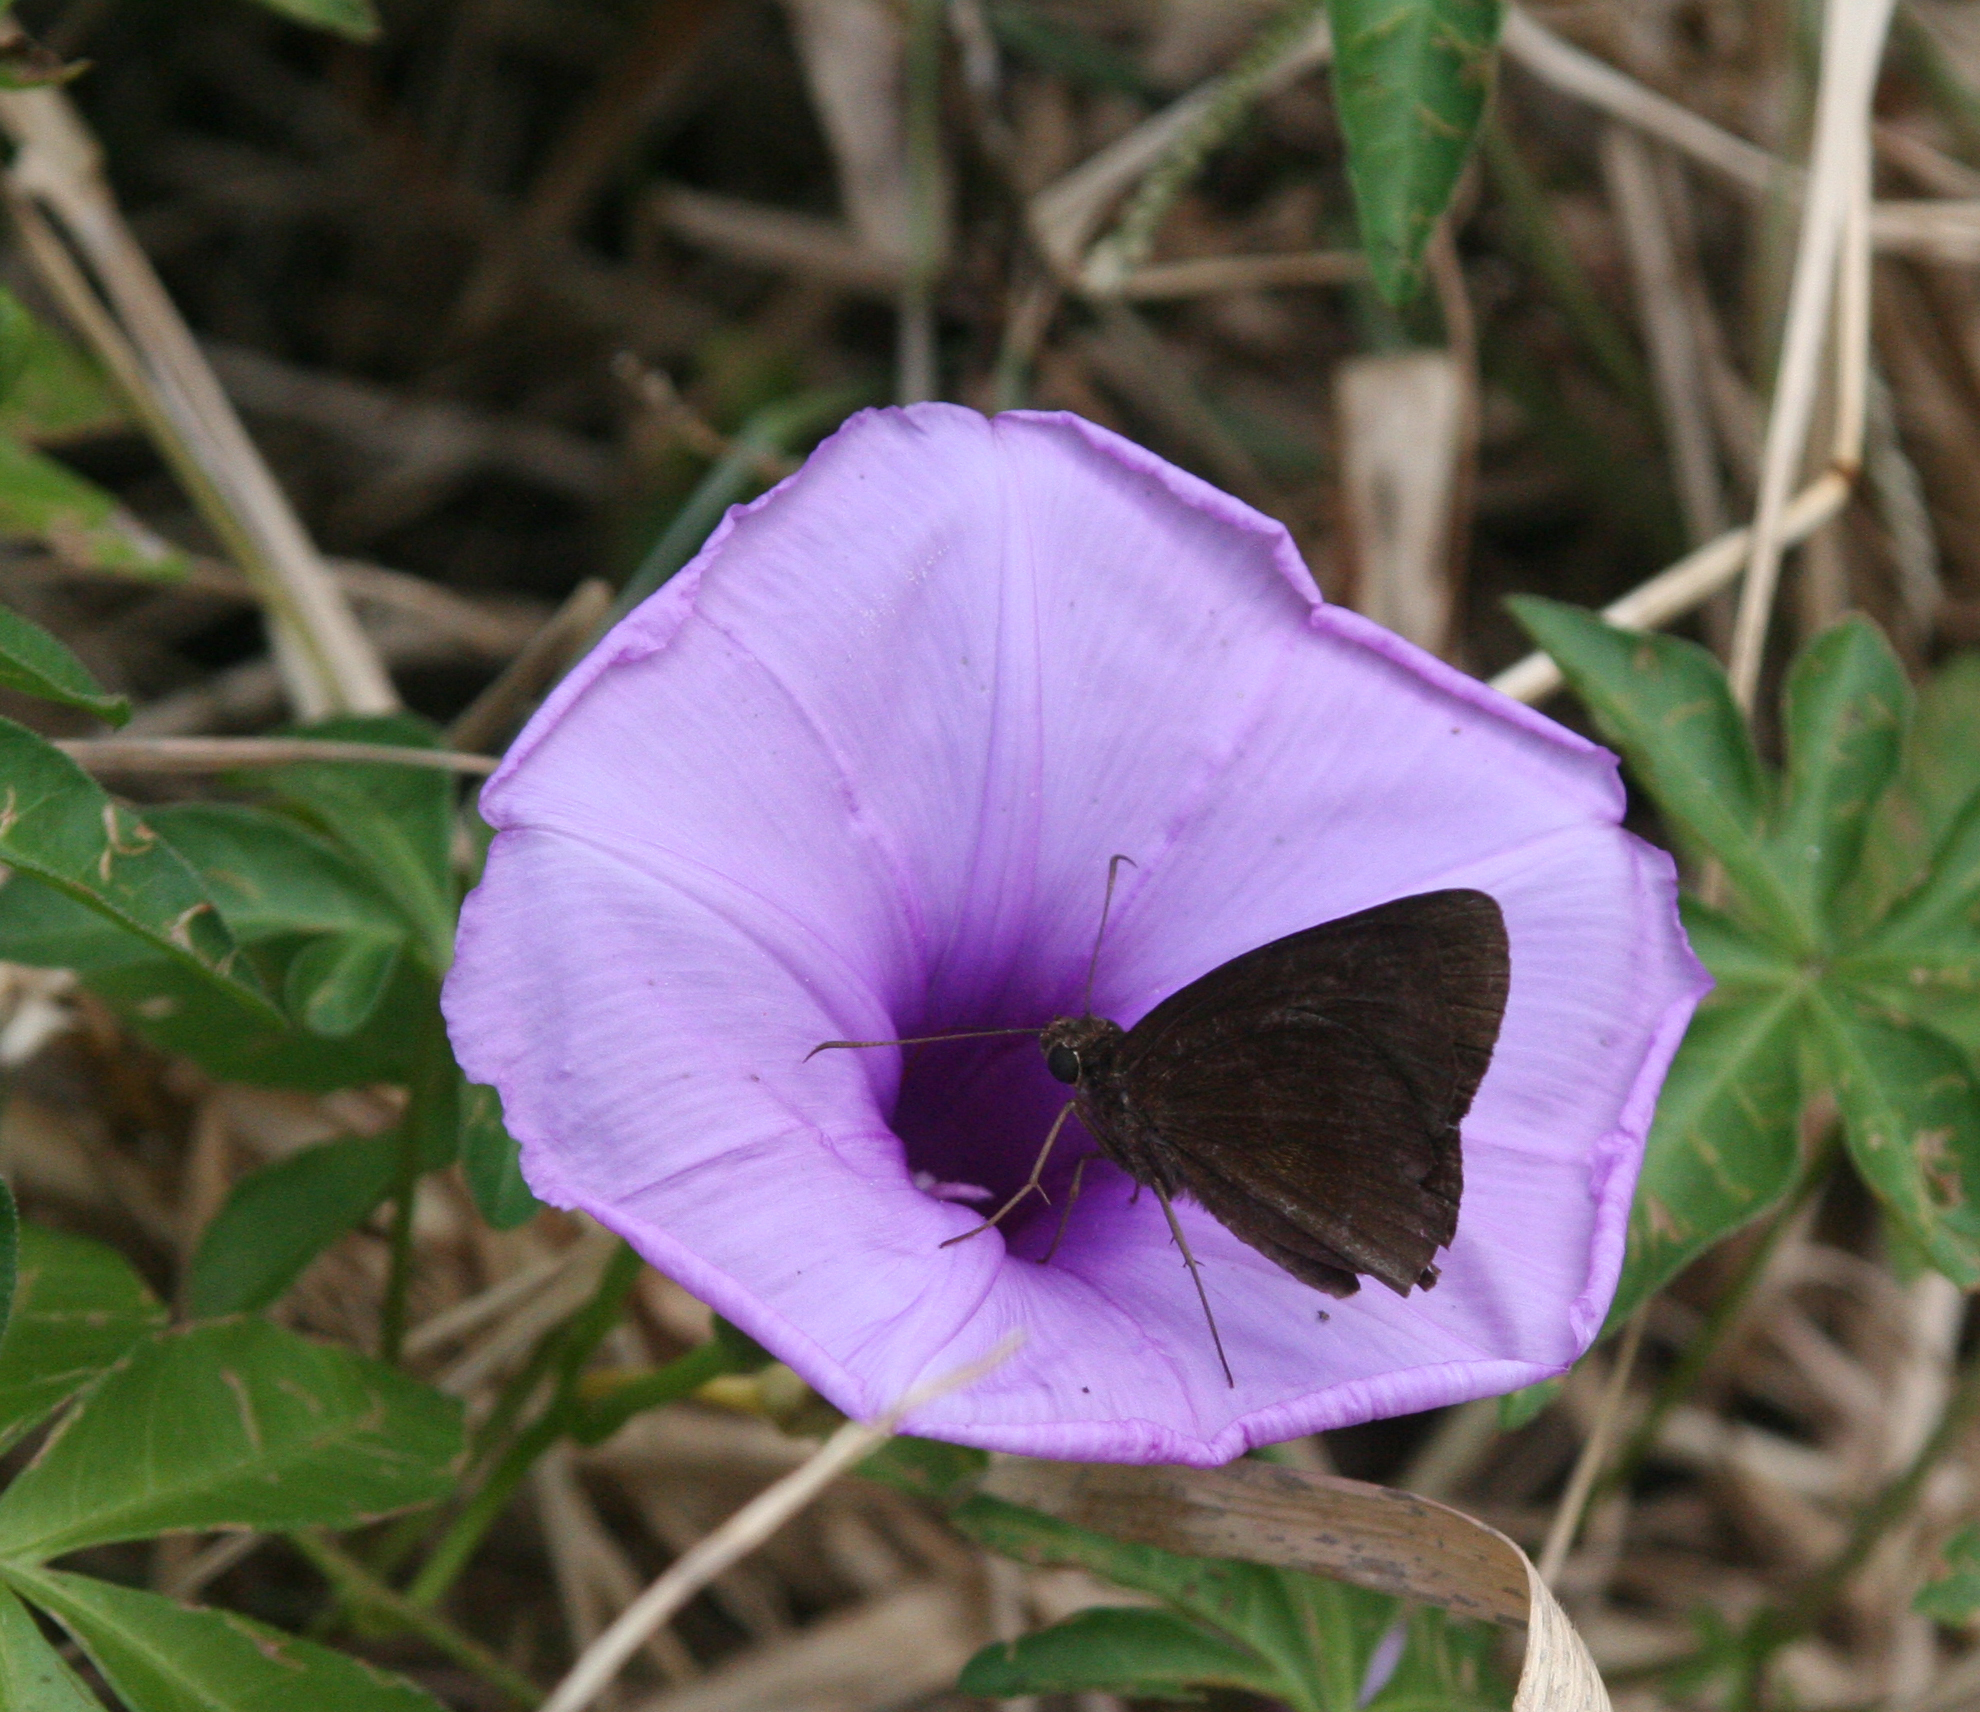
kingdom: Animalia
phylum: Arthropoda
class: Insecta
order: Lepidoptera
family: Hesperiidae
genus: Ancistroides
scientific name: Ancistroides nigrita
